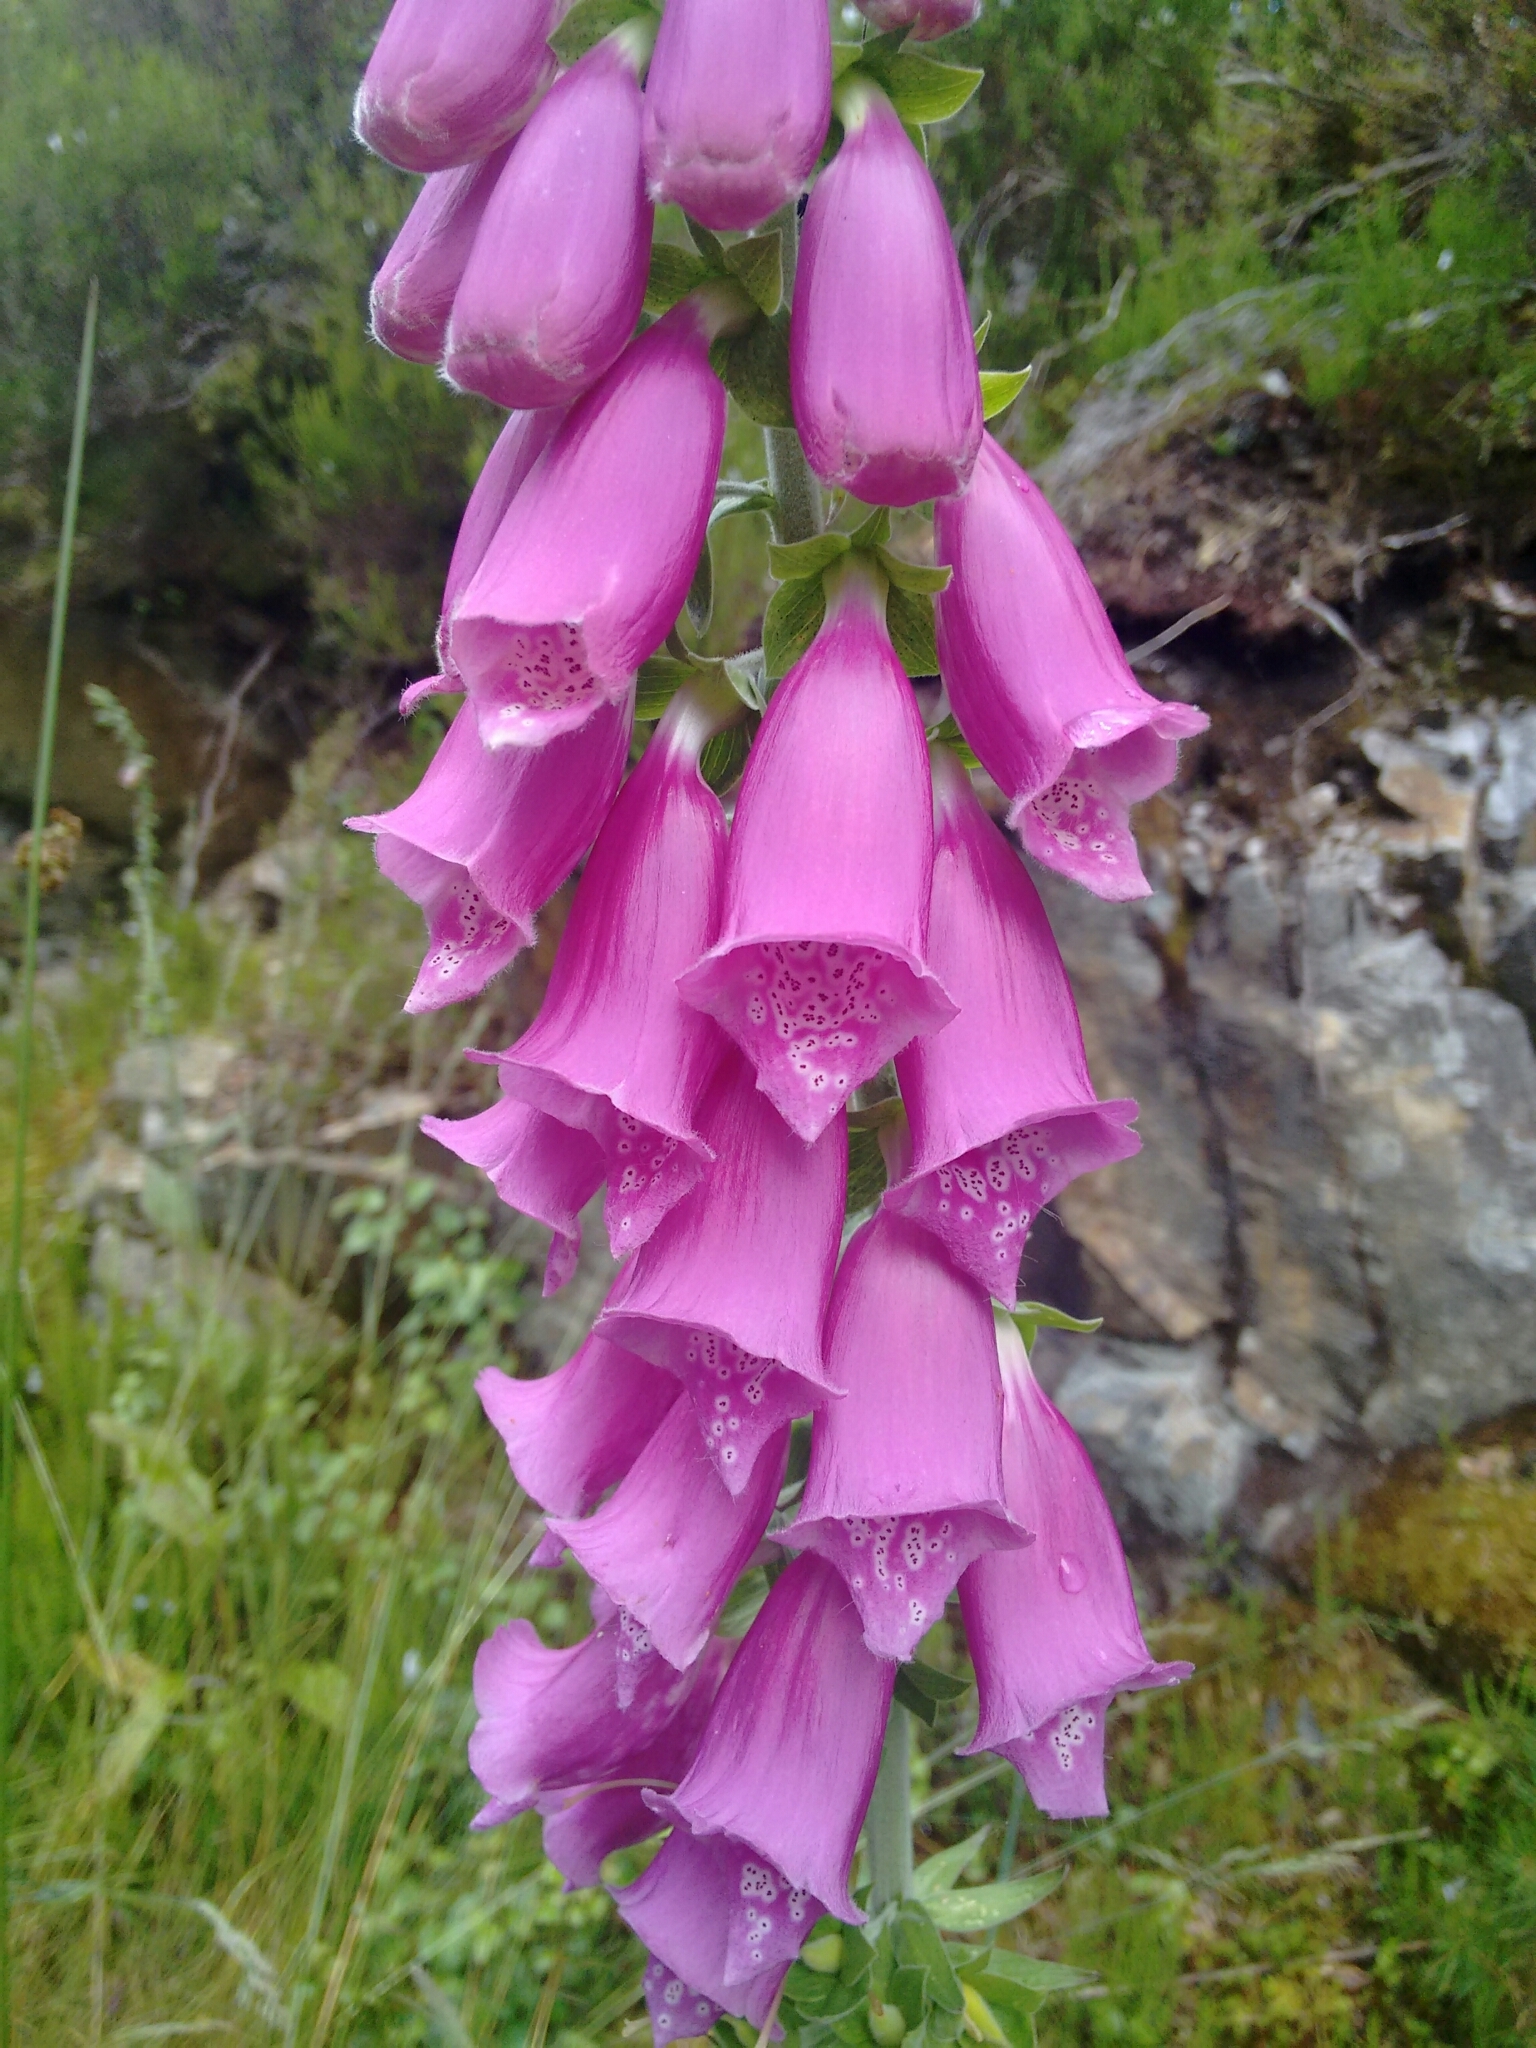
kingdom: Plantae
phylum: Tracheophyta
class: Magnoliopsida
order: Lamiales
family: Plantaginaceae
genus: Digitalis
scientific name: Digitalis purpurea
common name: Foxglove
